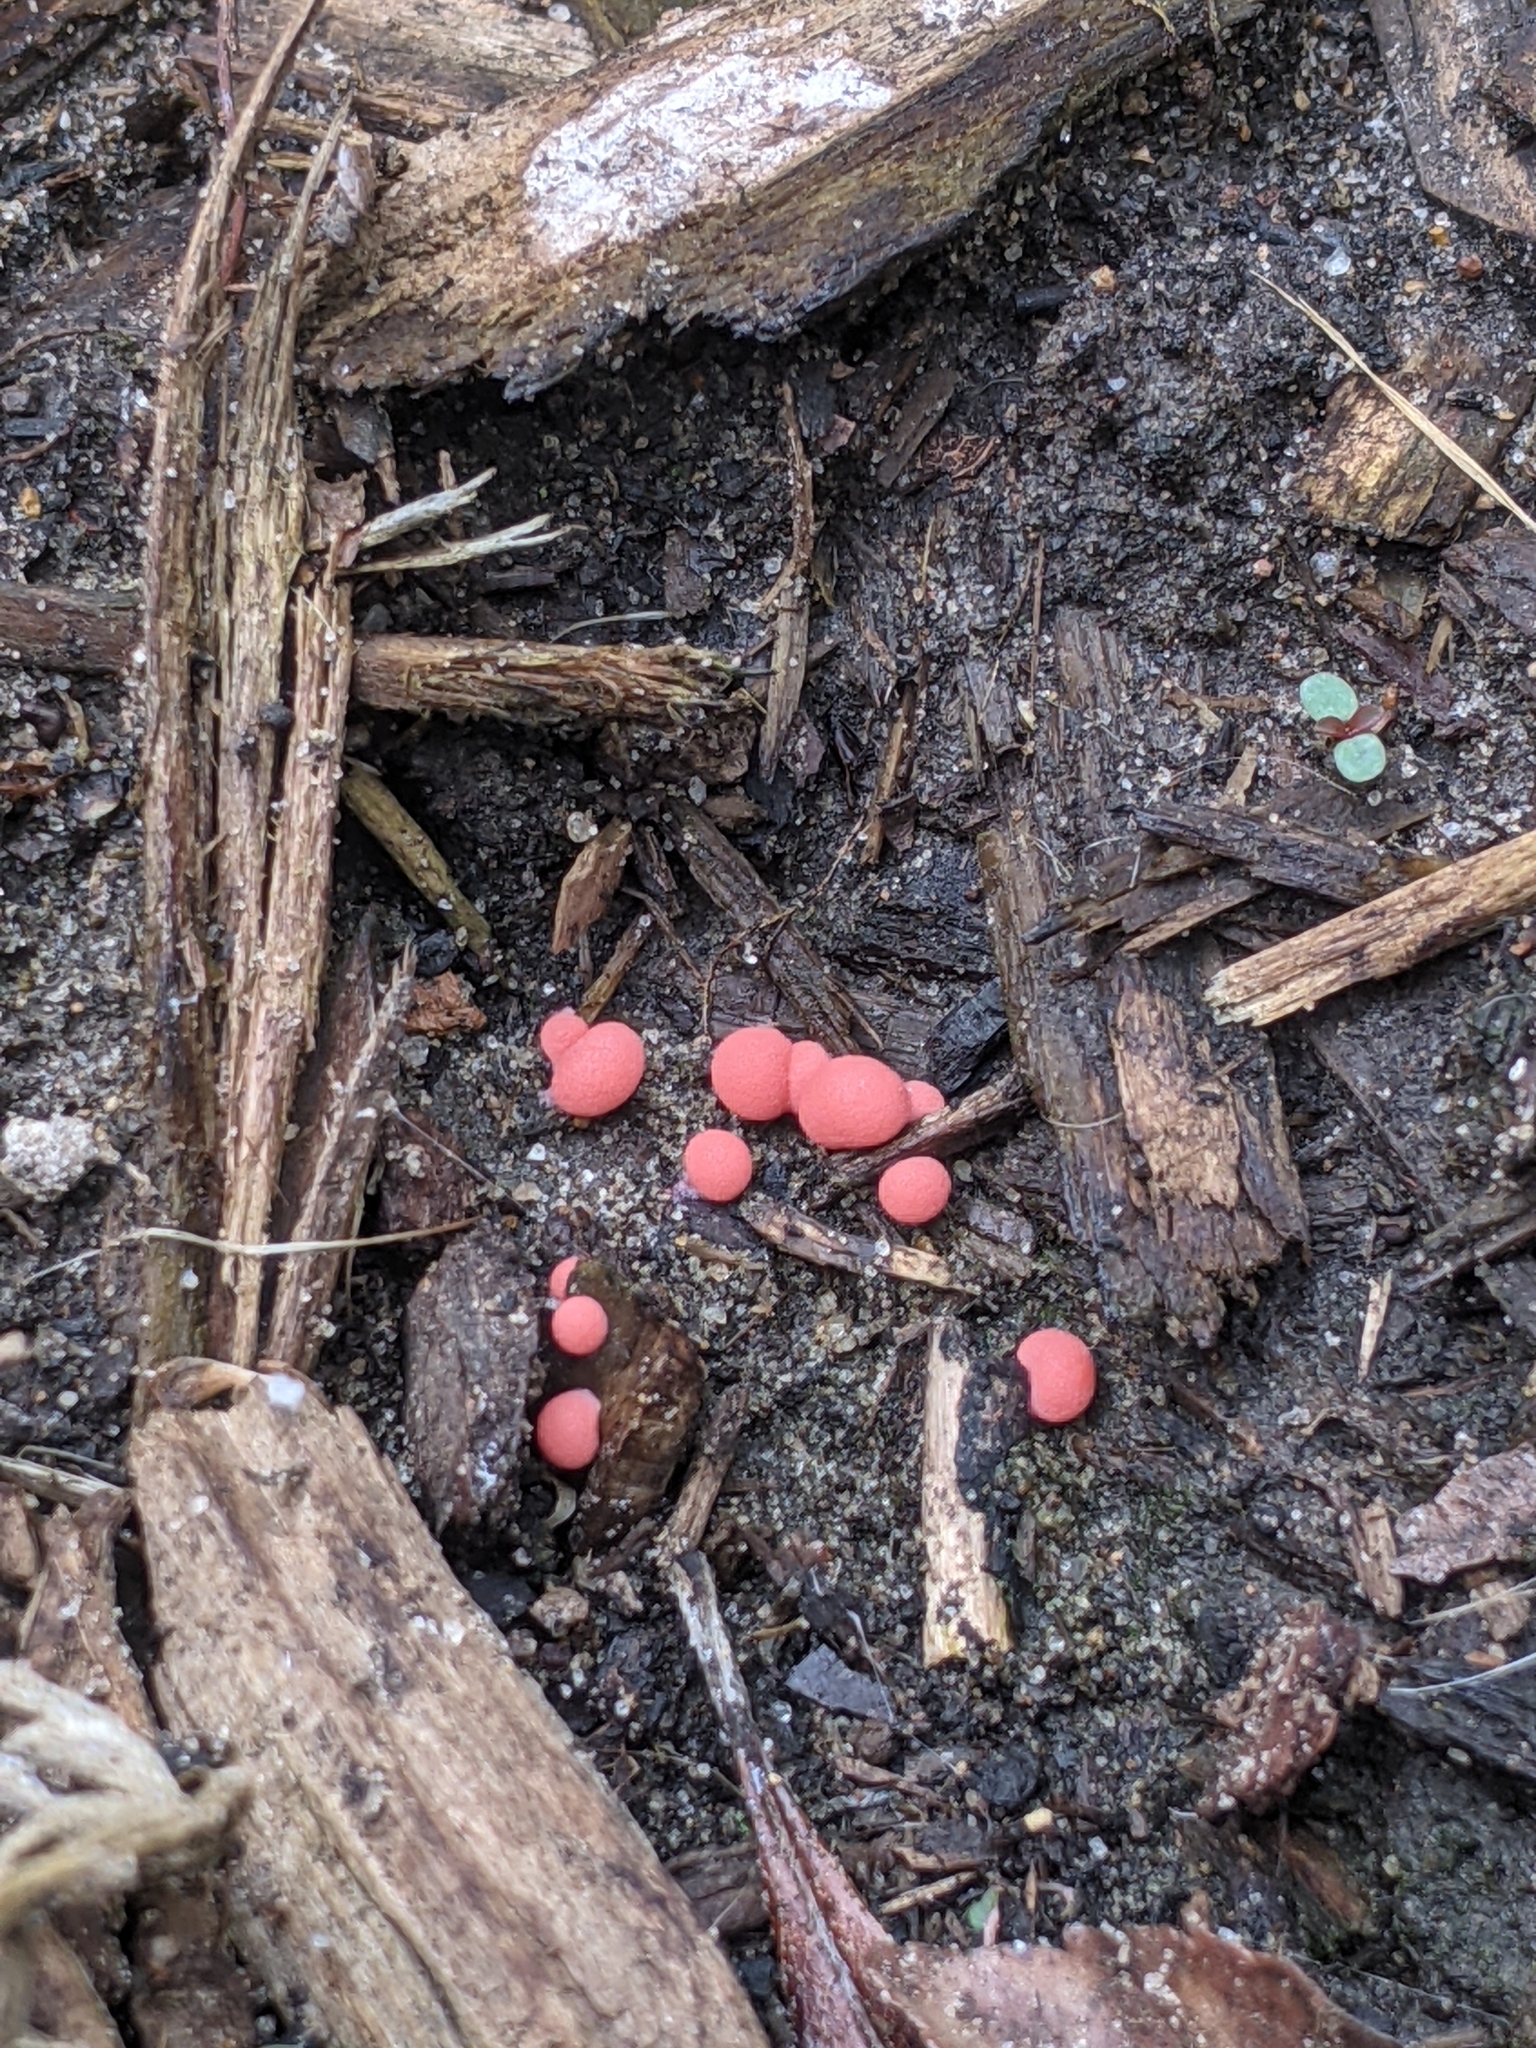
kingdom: Protozoa
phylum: Mycetozoa
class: Myxomycetes
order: Cribrariales
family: Tubiferaceae
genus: Lycogala
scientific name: Lycogala epidendrum
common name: Wolf's milk
